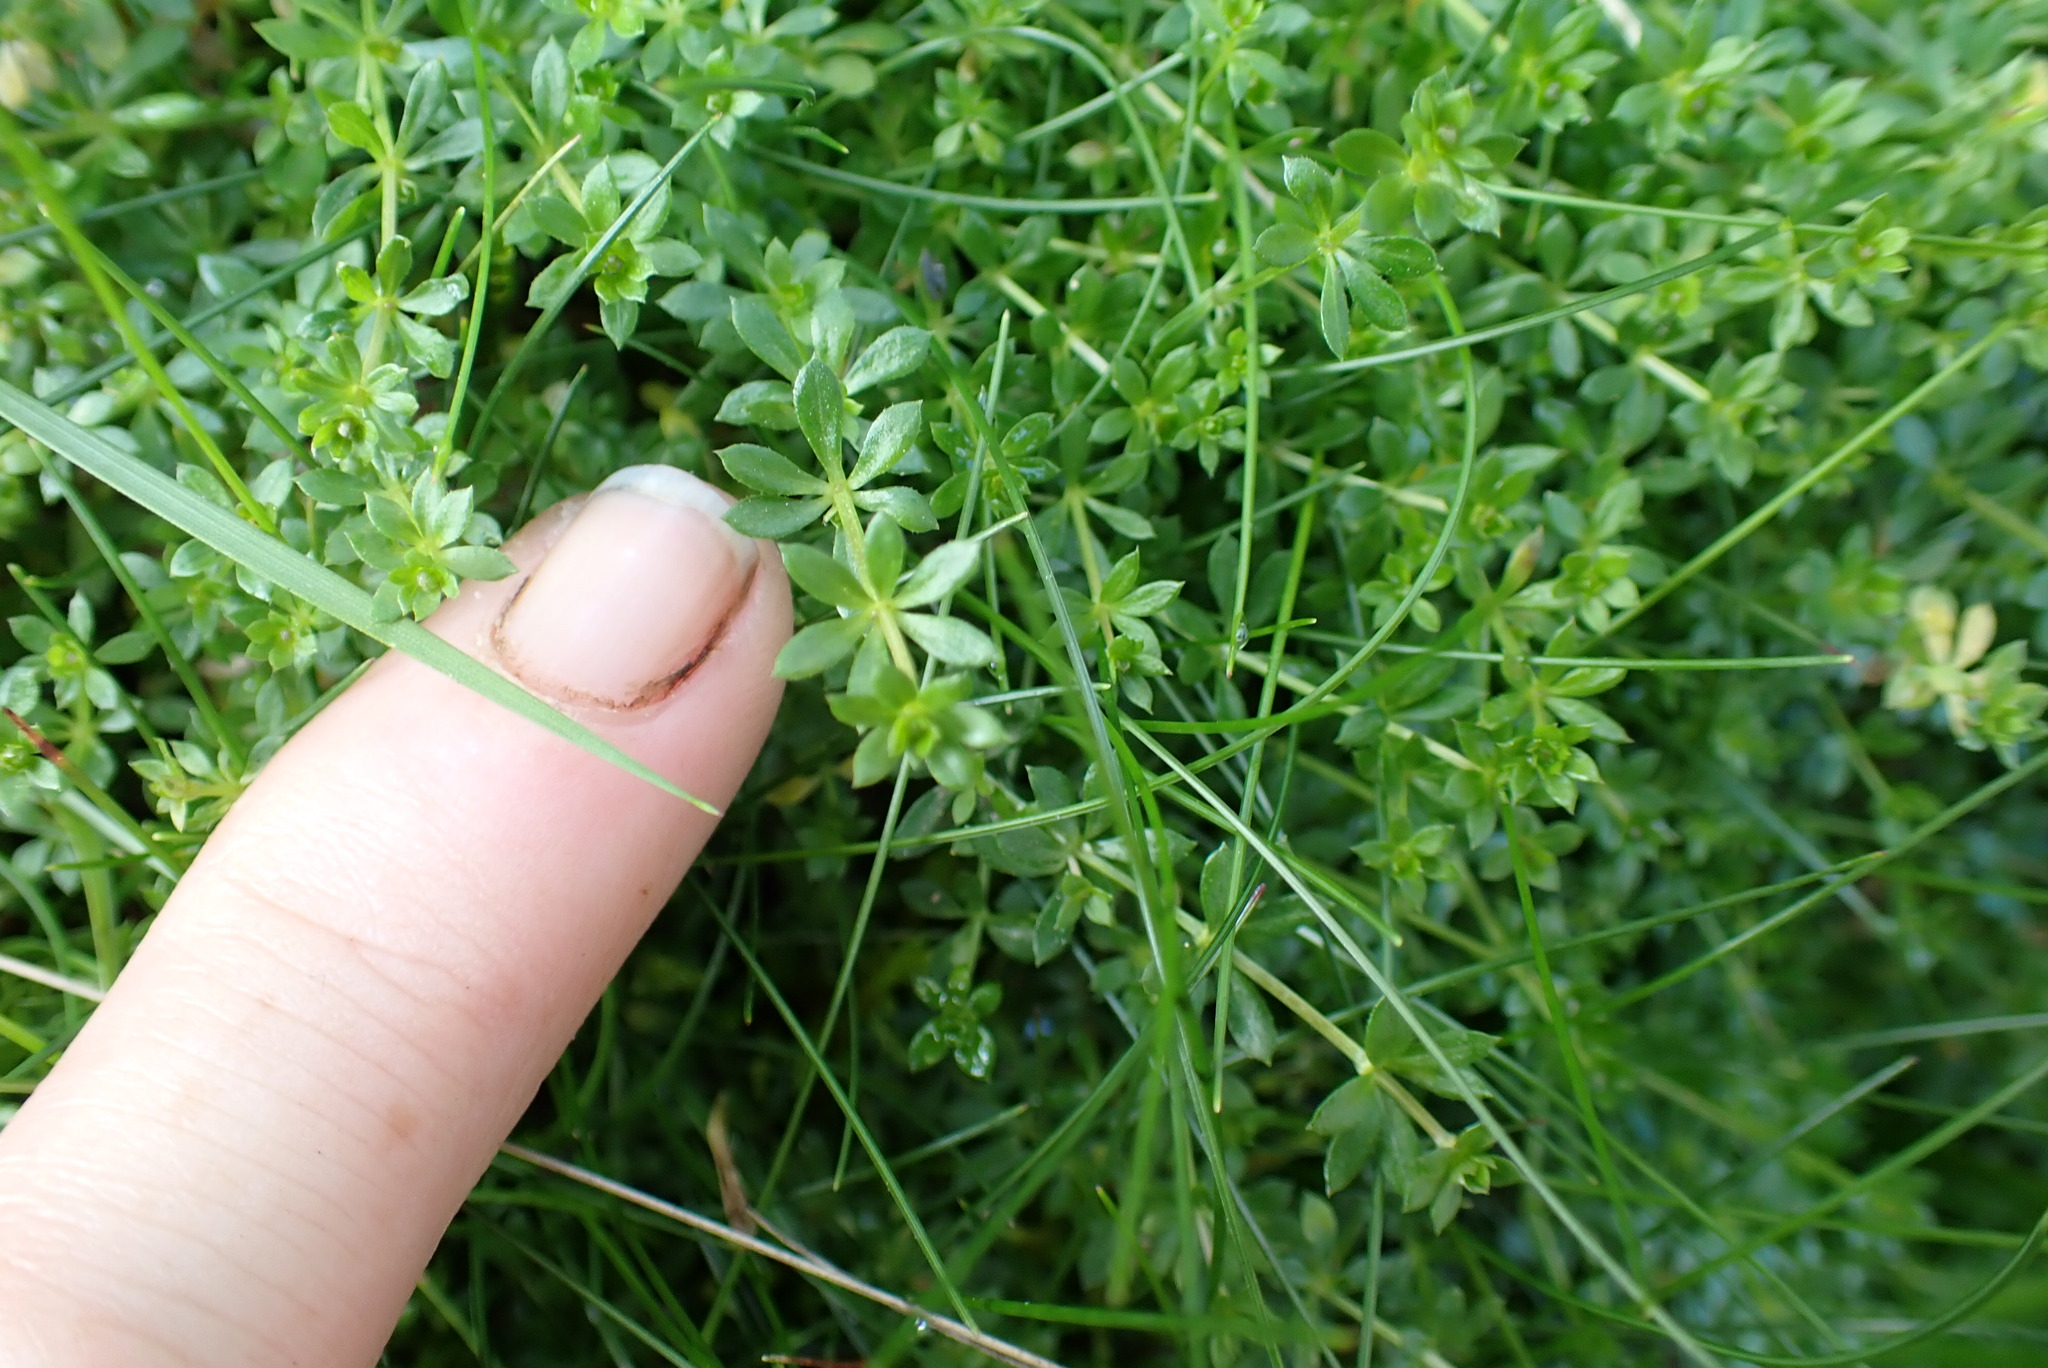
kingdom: Plantae
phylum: Tracheophyta
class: Magnoliopsida
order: Gentianales
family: Rubiaceae
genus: Galium
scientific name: Galium saxatile
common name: Heath bedstraw
